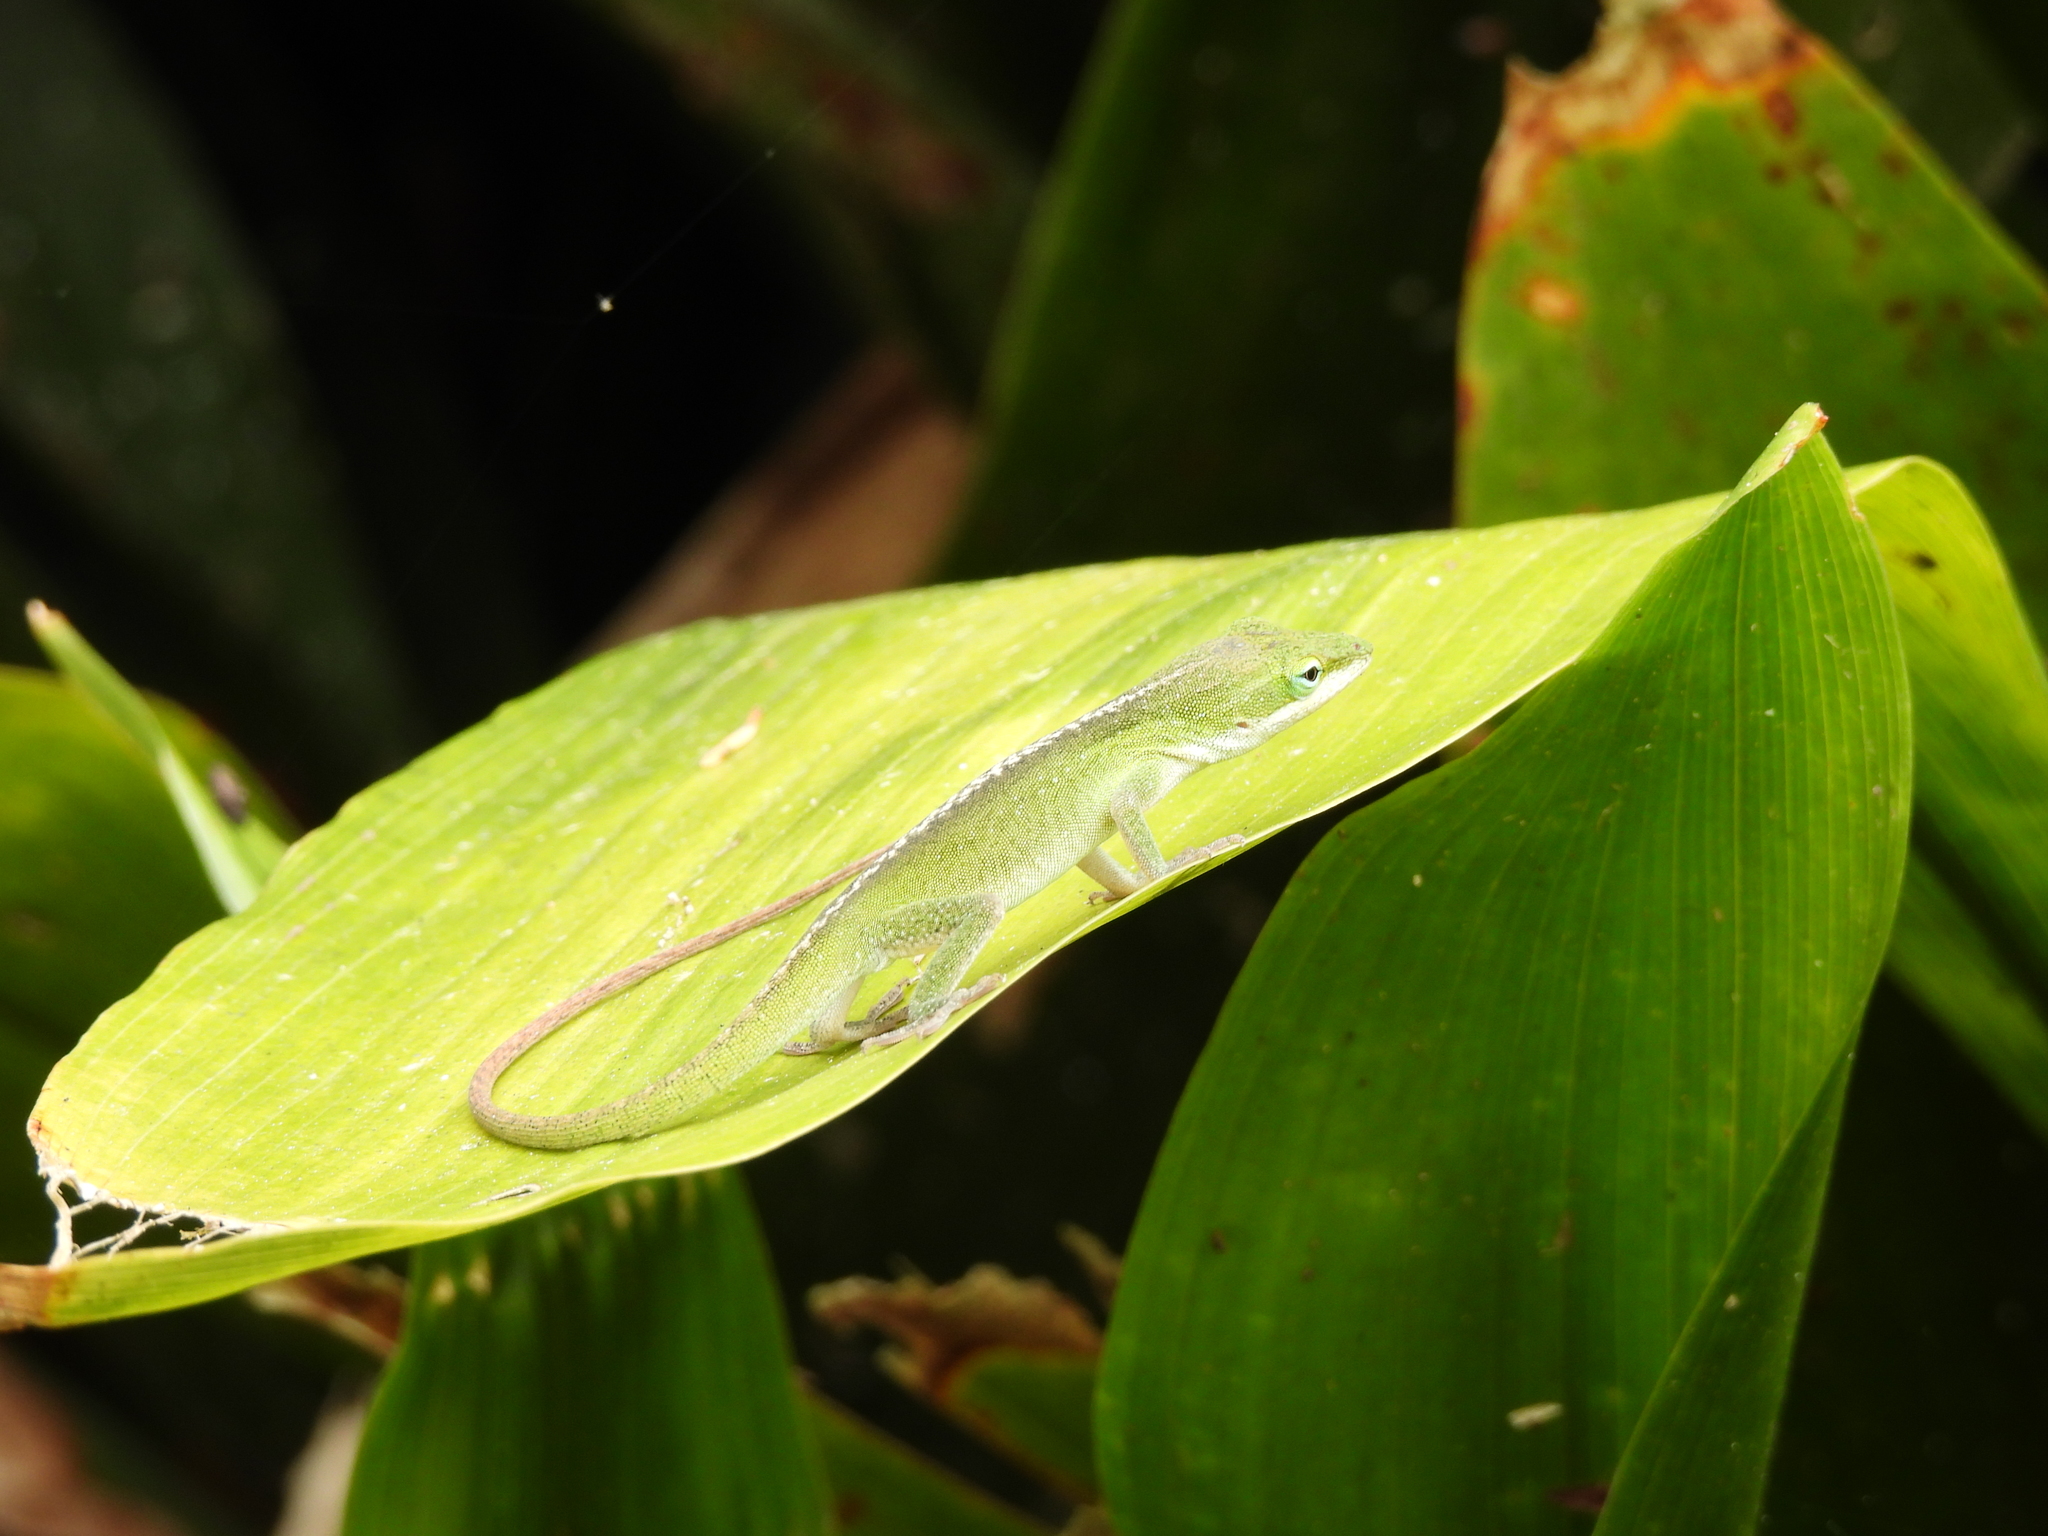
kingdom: Animalia
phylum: Chordata
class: Squamata
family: Dactyloidae
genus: Anolis
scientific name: Anolis carolinensis
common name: Green anole
